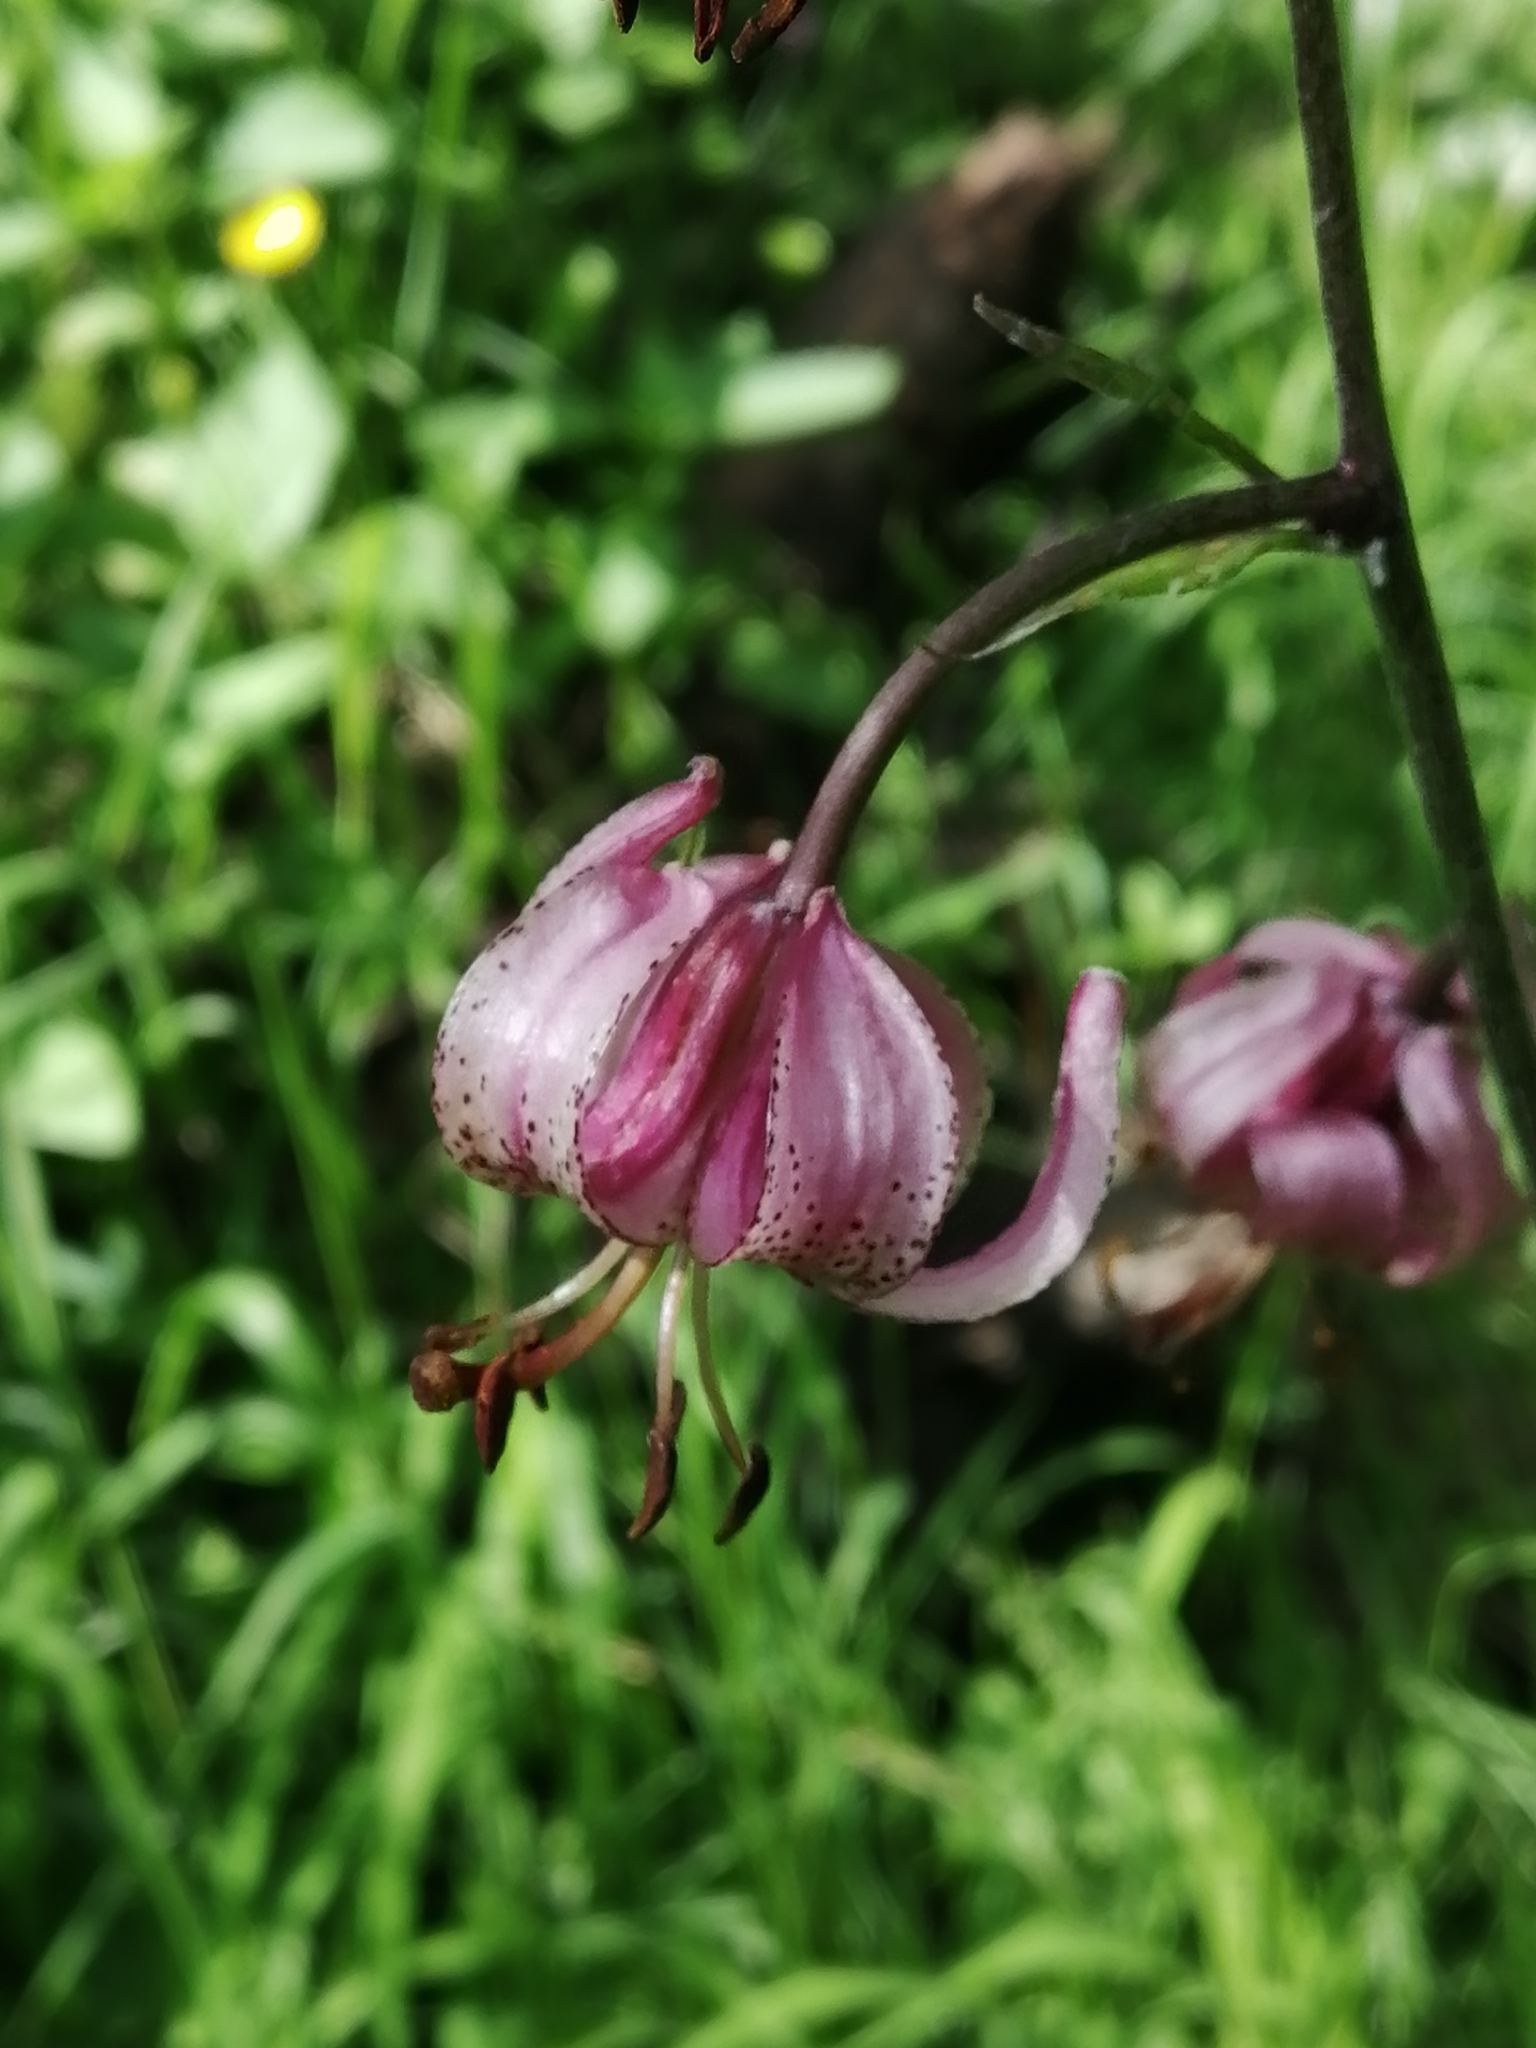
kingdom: Plantae
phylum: Tracheophyta
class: Liliopsida
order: Liliales
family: Liliaceae
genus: Lilium
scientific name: Lilium martagon
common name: Martagon lily
